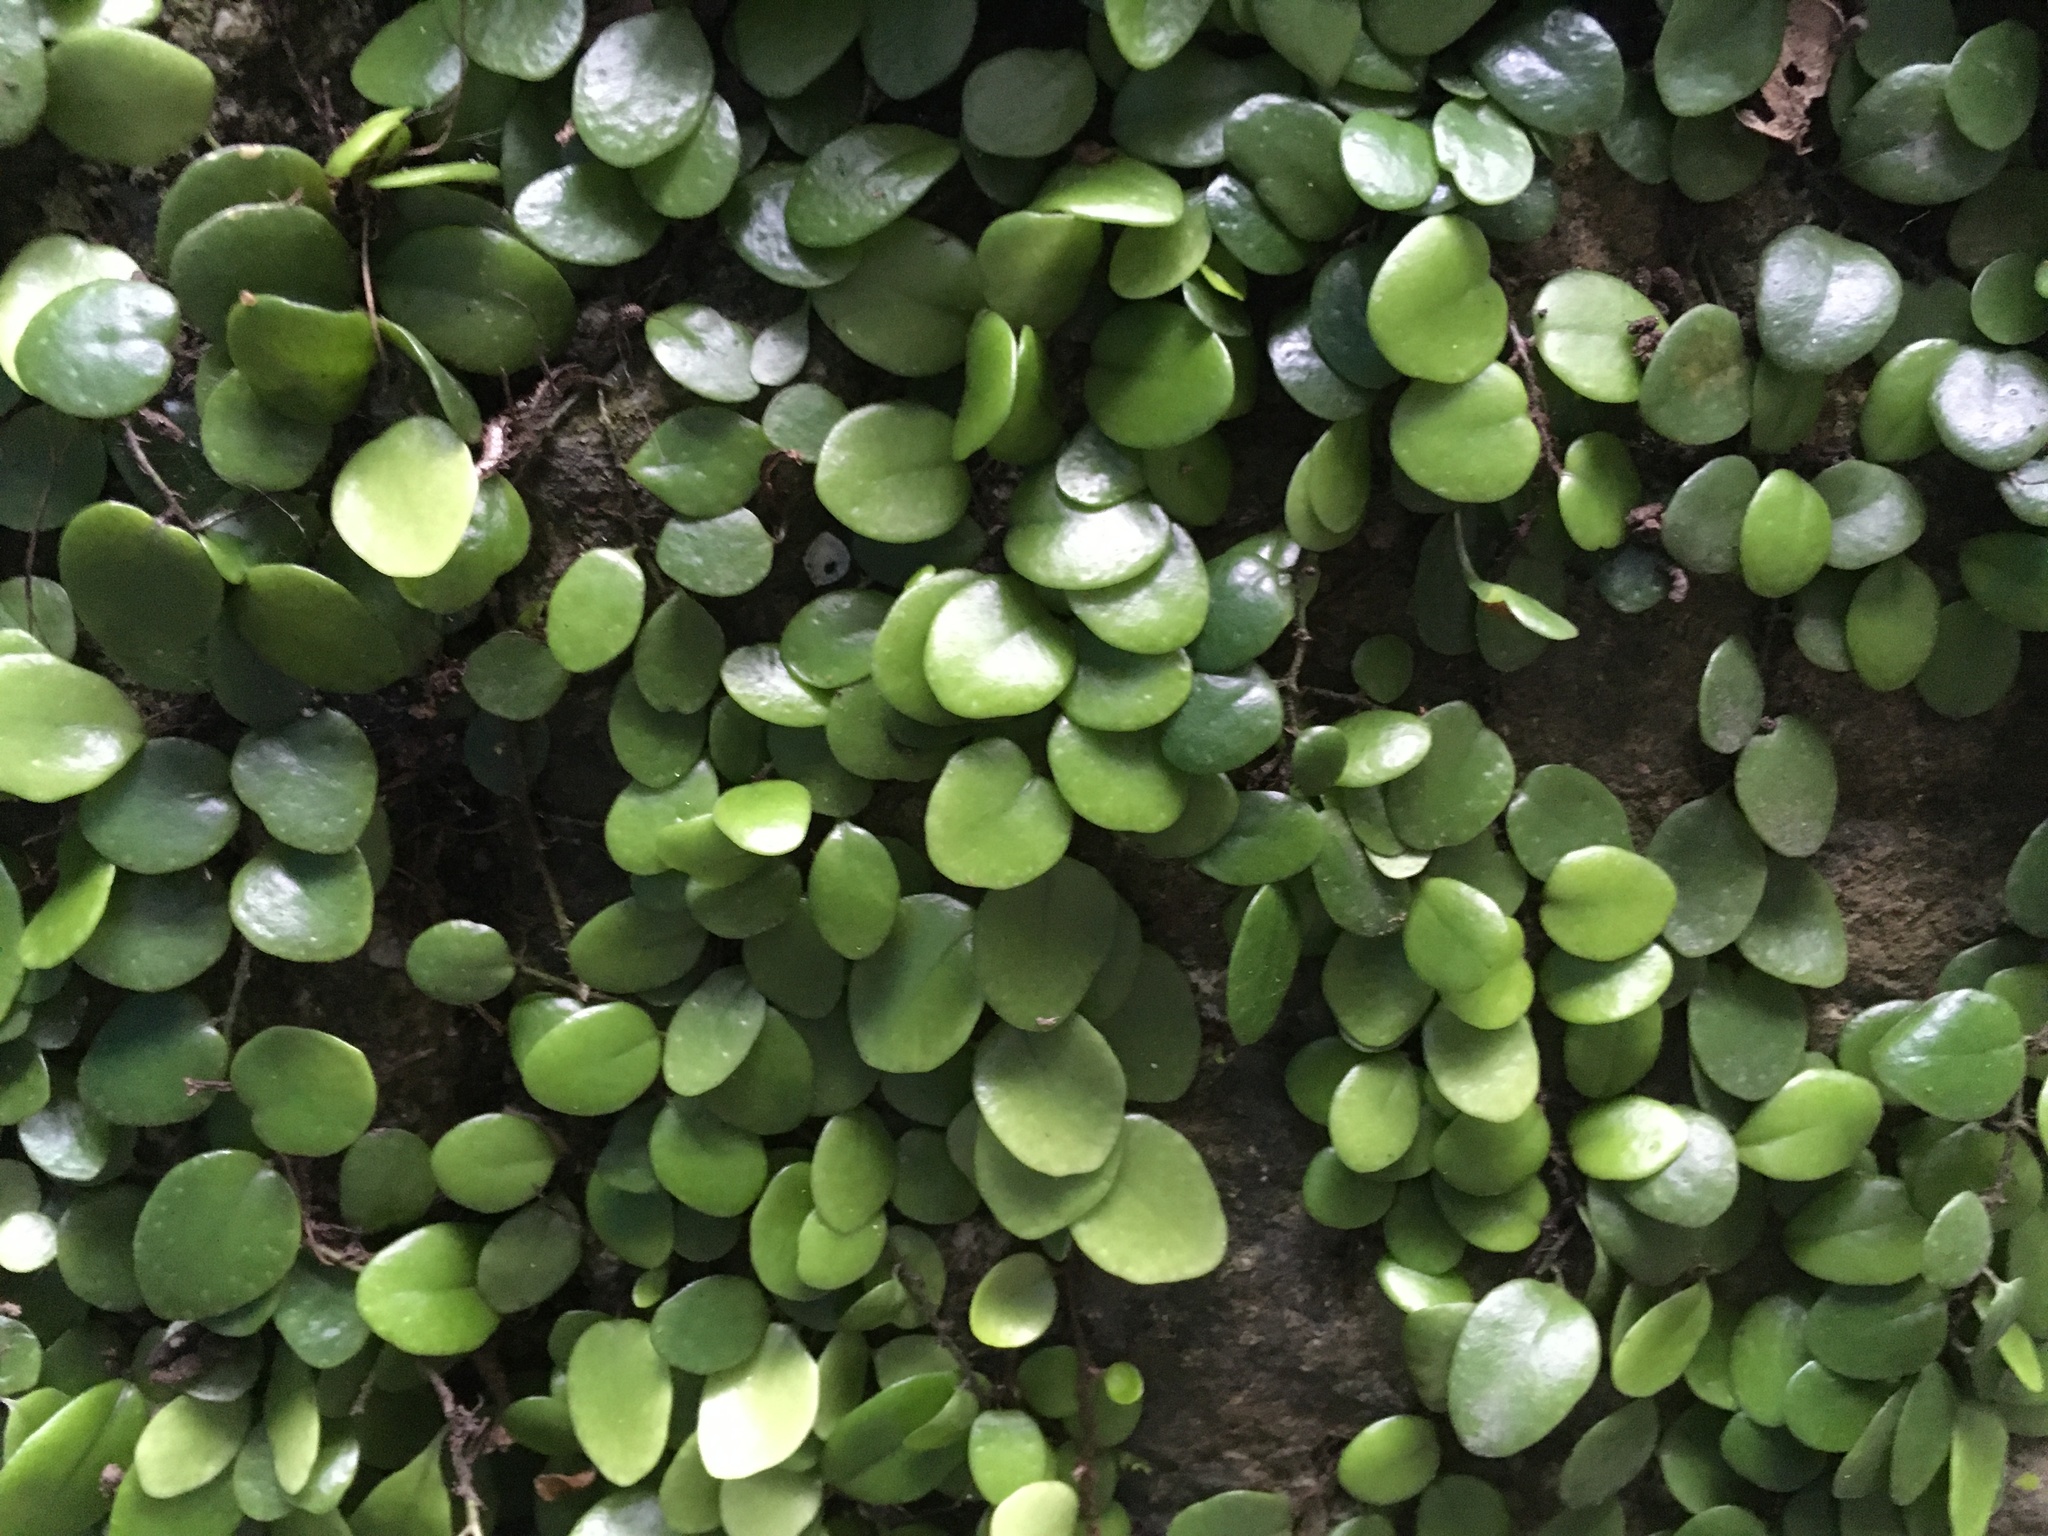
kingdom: Plantae
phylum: Tracheophyta
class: Polypodiopsida
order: Polypodiales
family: Polypodiaceae
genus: Lepisorus
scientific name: Lepisorus microphyllus
